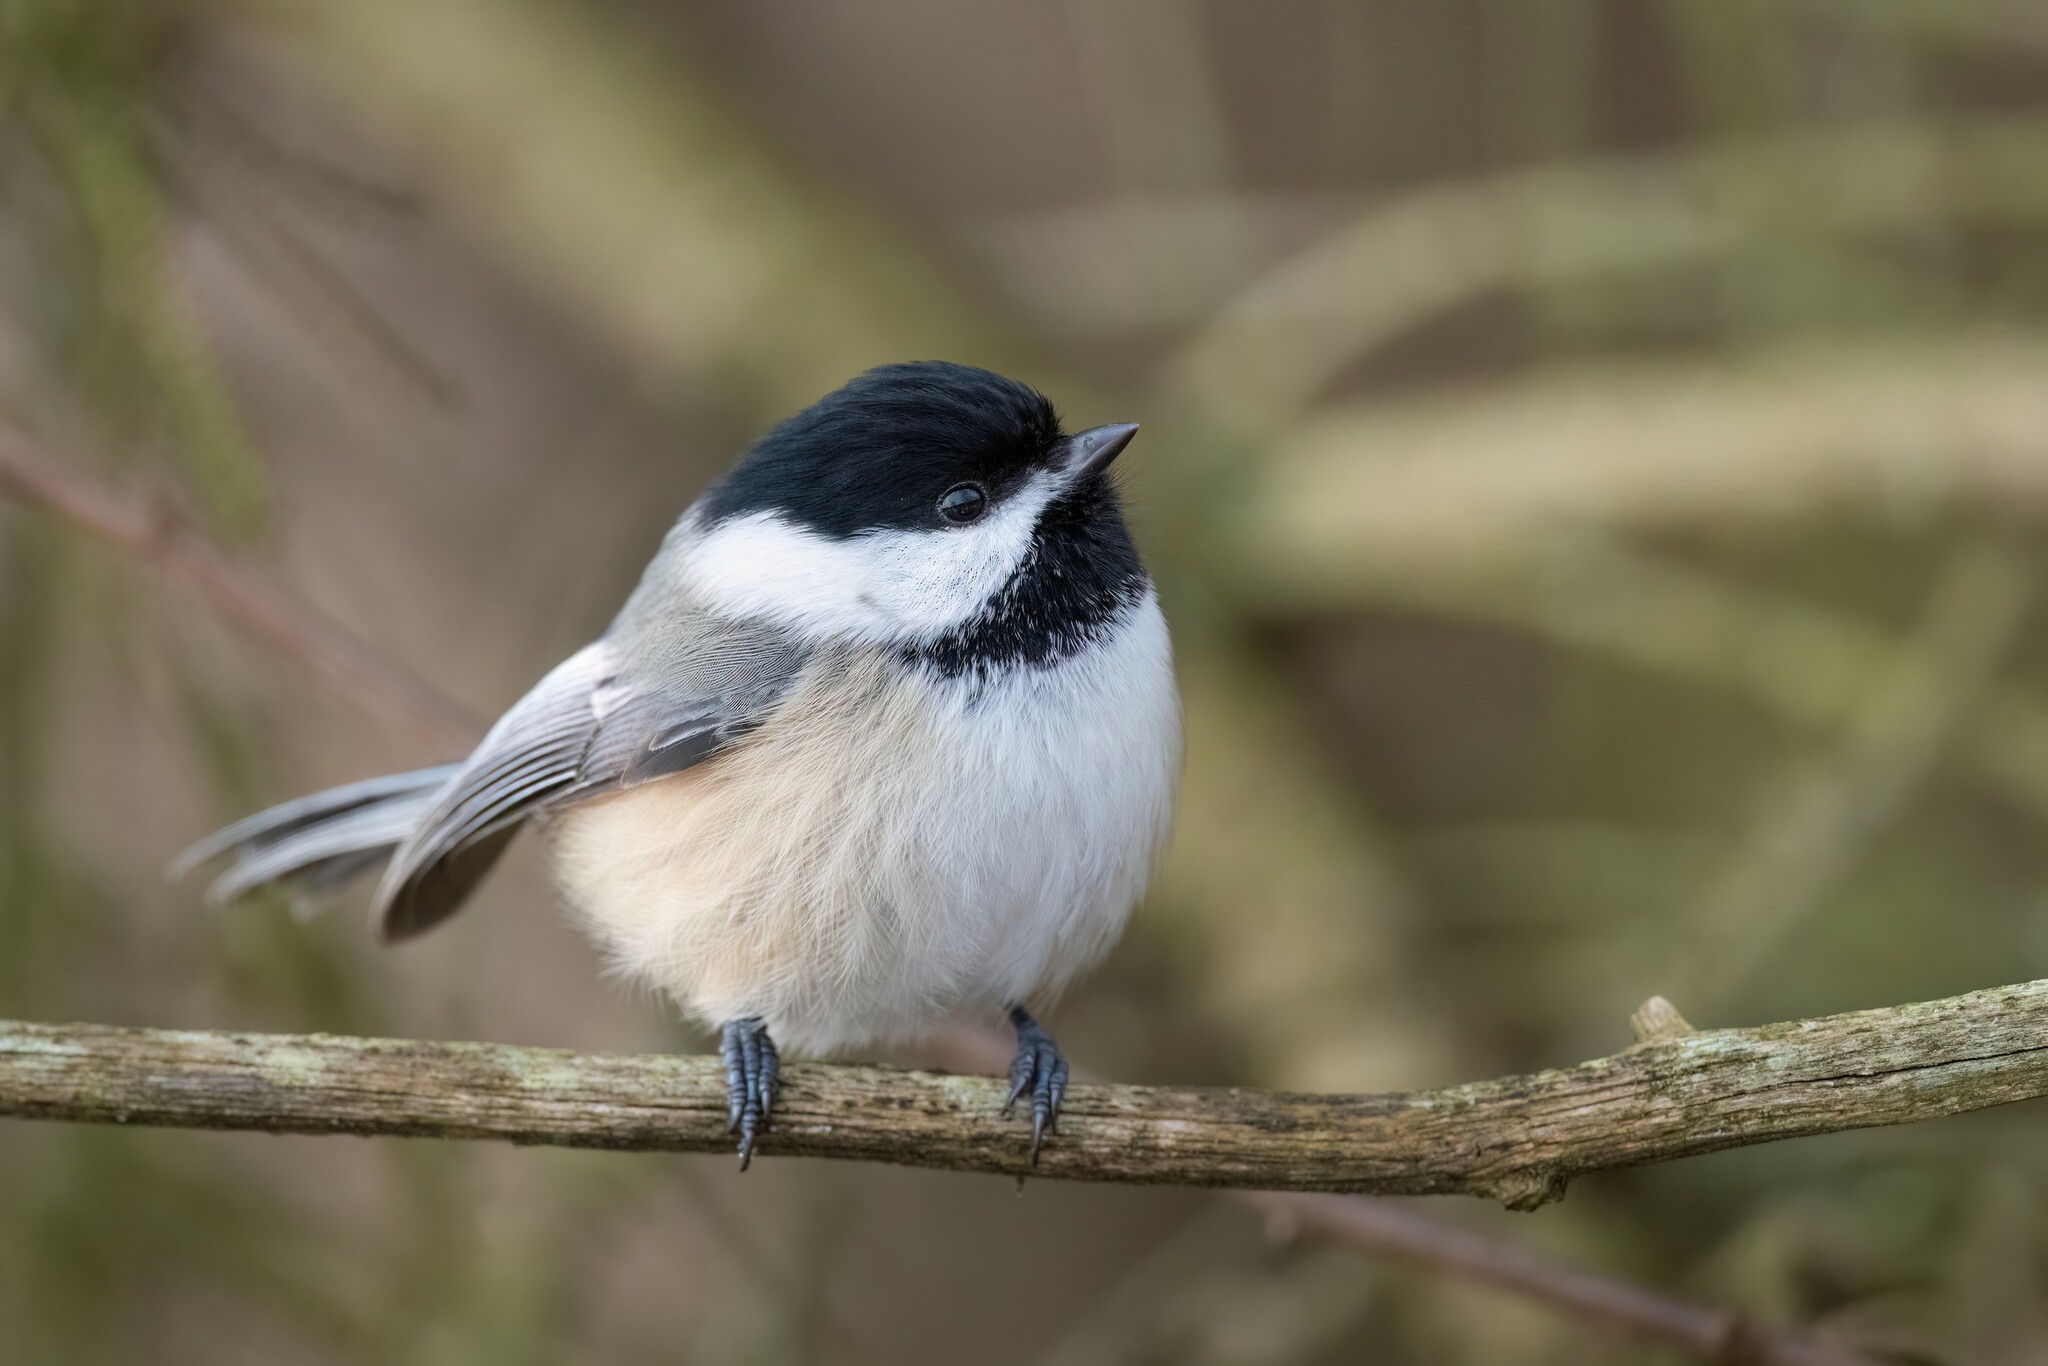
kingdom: Animalia
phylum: Chordata
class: Aves
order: Passeriformes
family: Paridae
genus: Poecile
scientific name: Poecile atricapillus
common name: Black-capped chickadee
